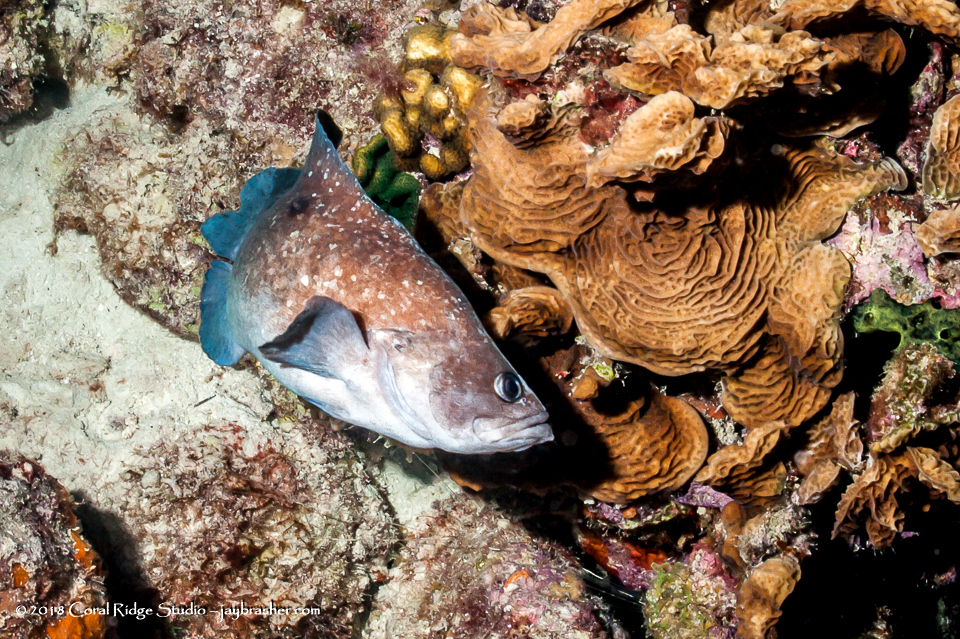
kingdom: Animalia
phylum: Chordata
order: Perciformes
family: Serranidae
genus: Rypticus
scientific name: Rypticus saponaceus
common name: Soapfish
